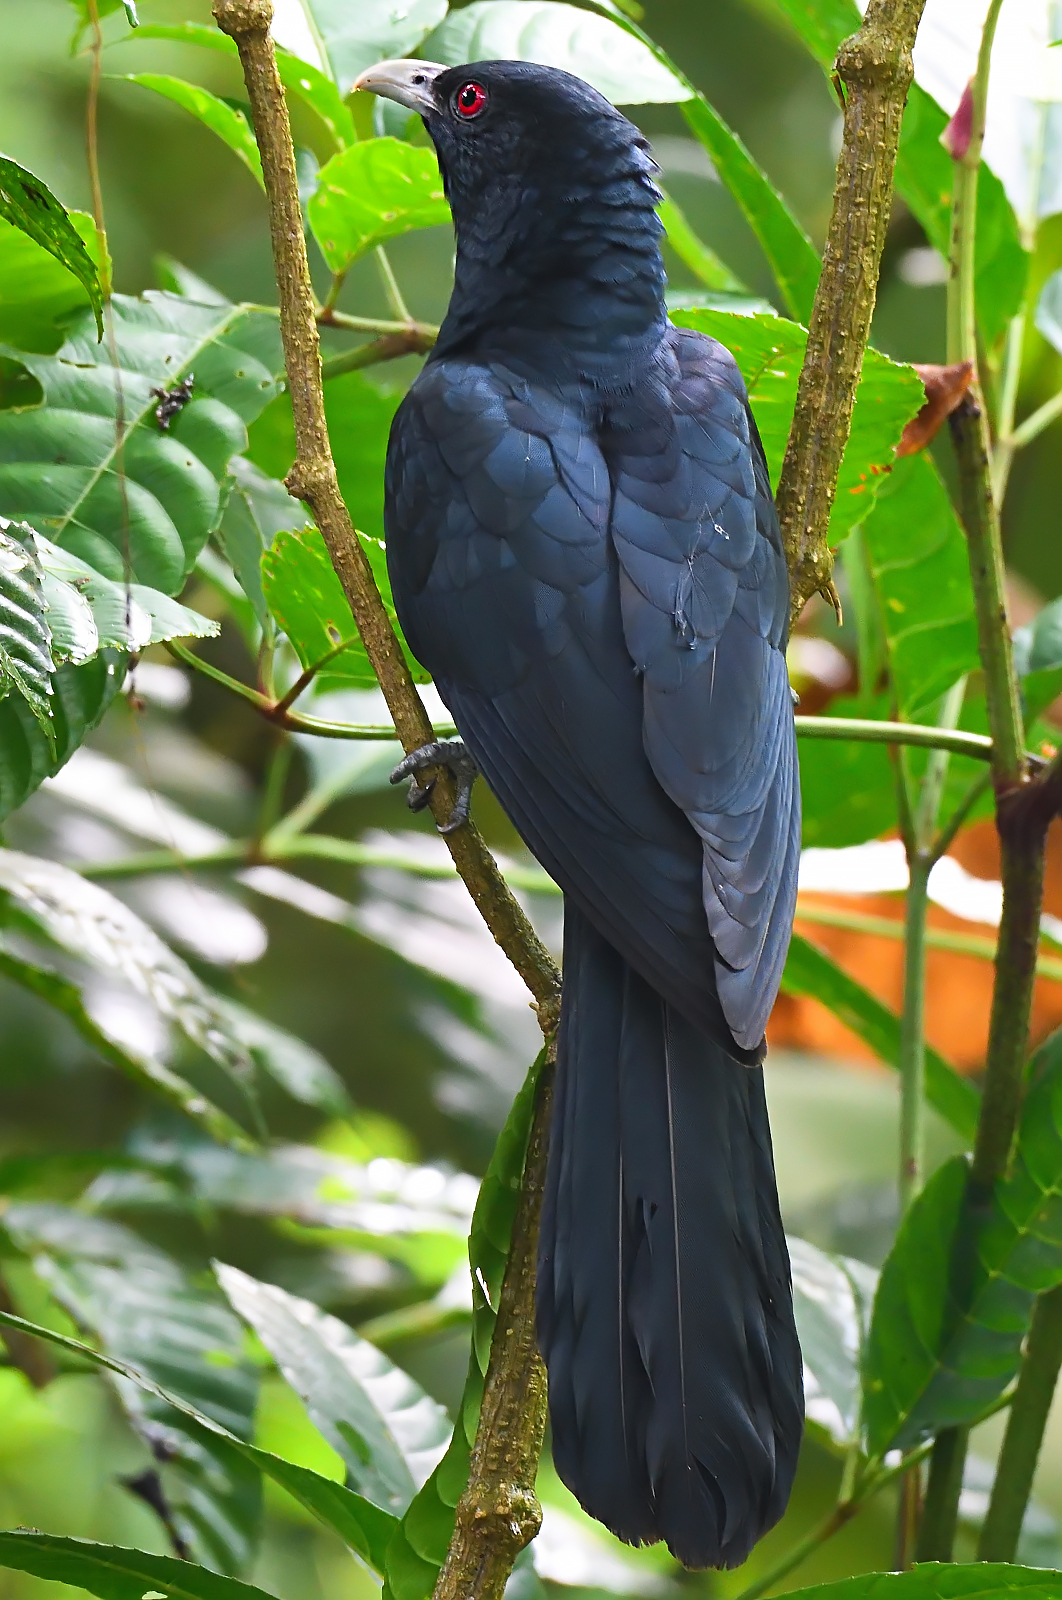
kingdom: Animalia
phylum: Chordata
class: Aves
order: Cuculiformes
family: Cuculidae
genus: Eudynamys
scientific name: Eudynamys scolopaceus
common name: Asian koel
